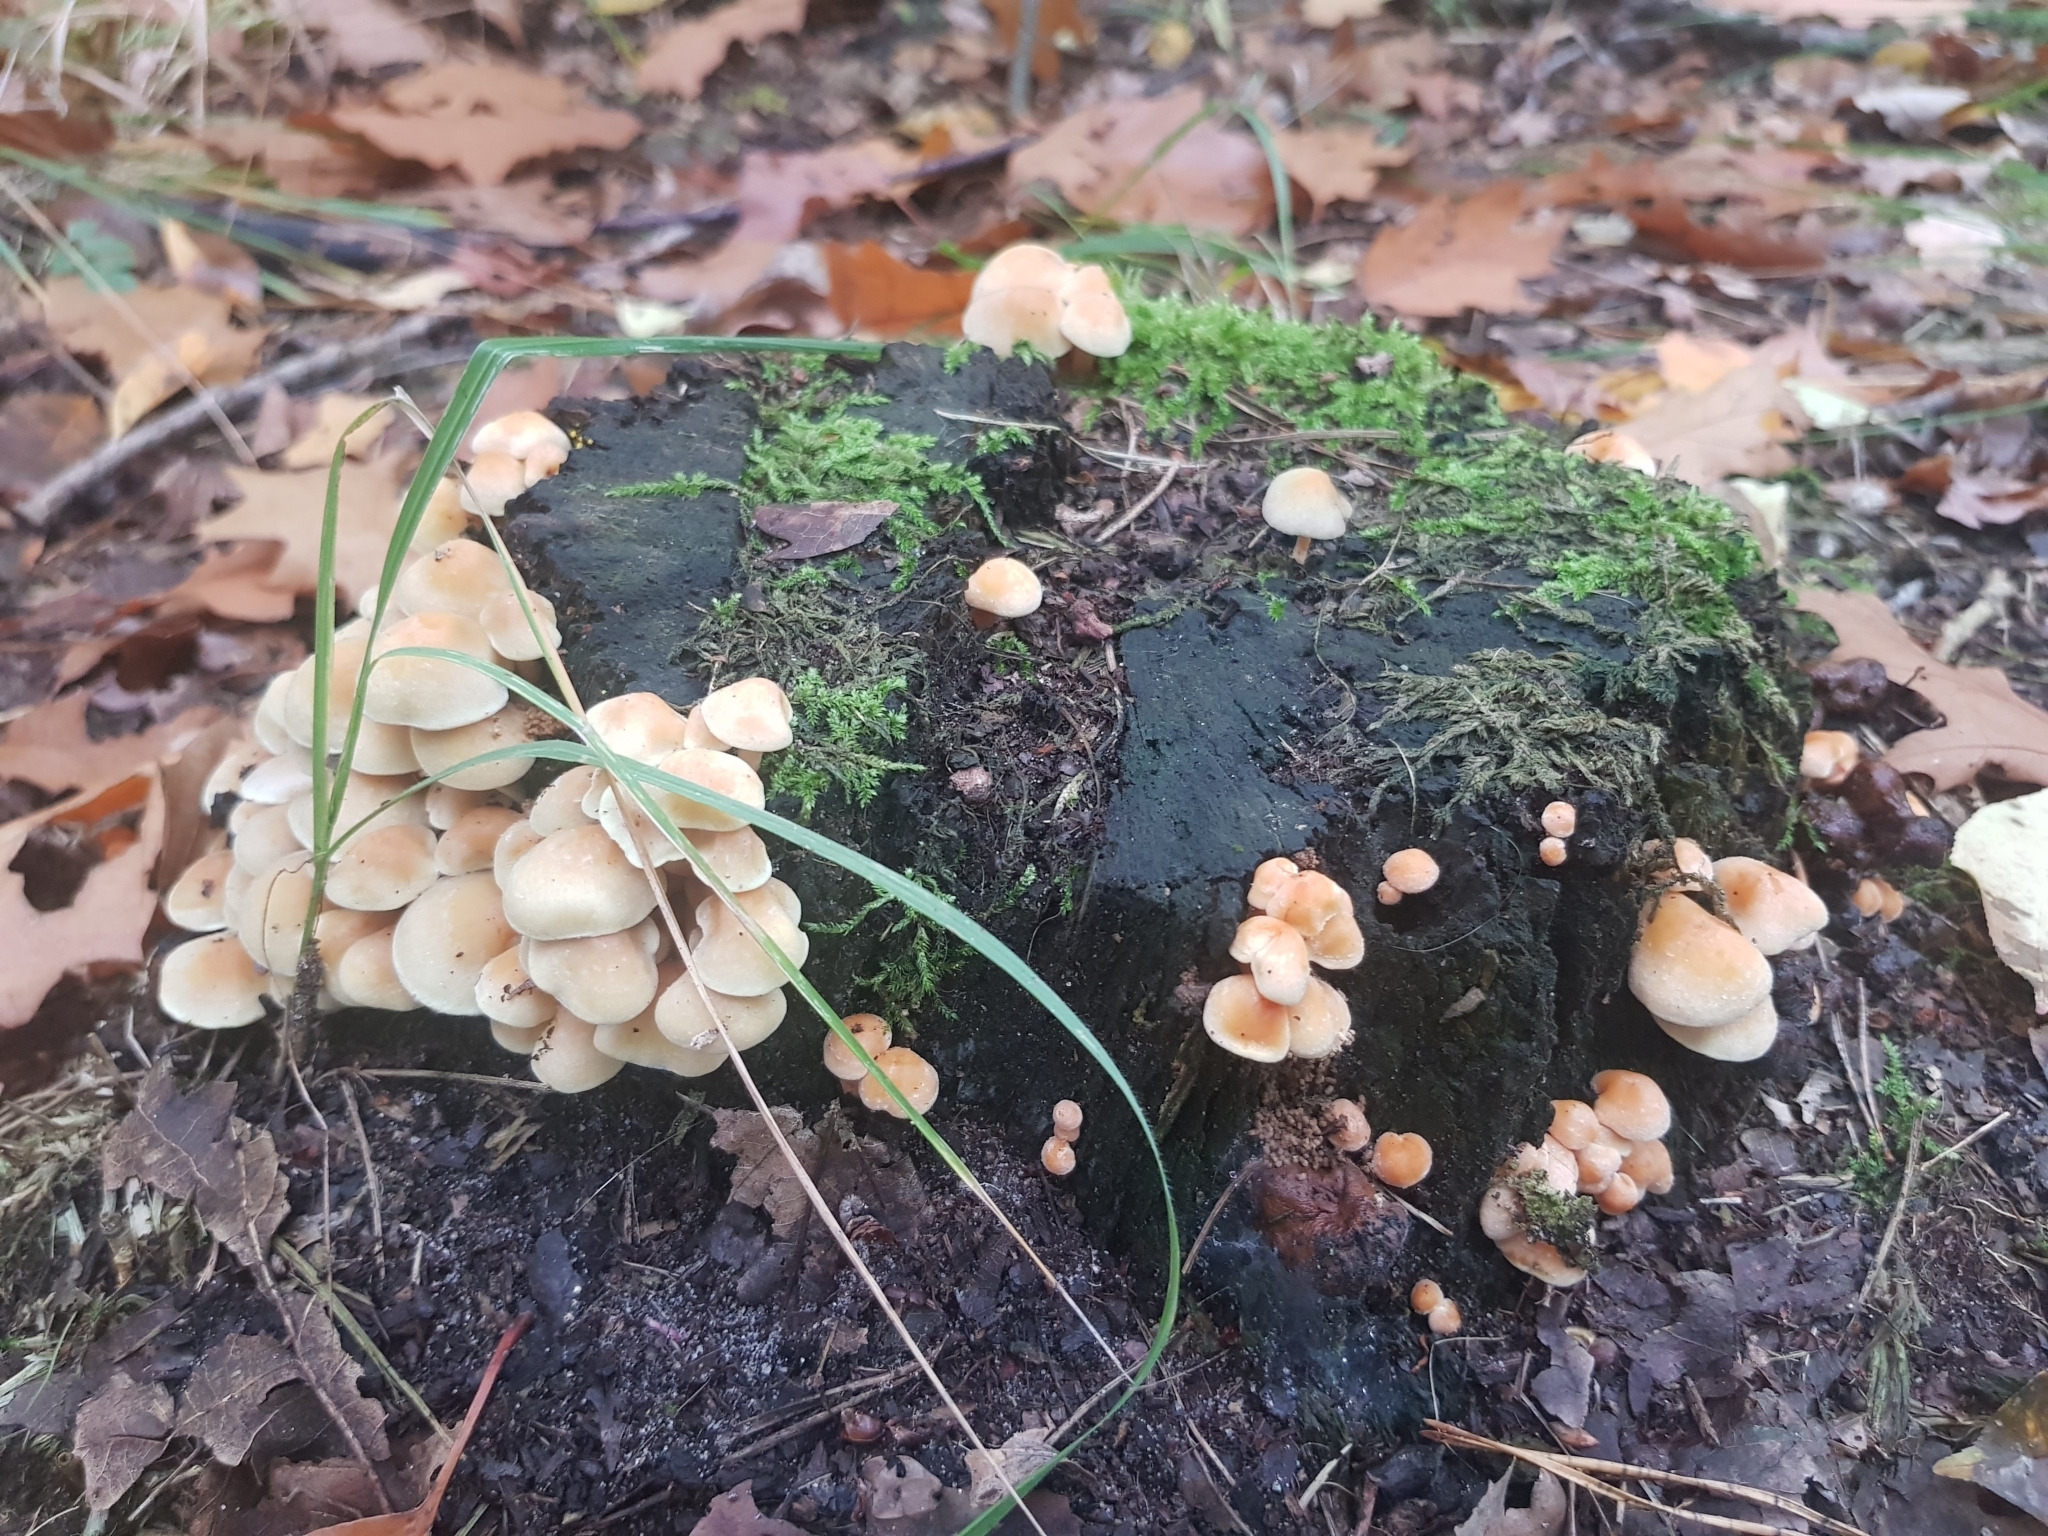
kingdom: Fungi
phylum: Basidiomycota
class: Agaricomycetes
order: Agaricales
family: Strophariaceae
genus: Hypholoma
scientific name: Hypholoma fasciculare
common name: Sulphur tuft
